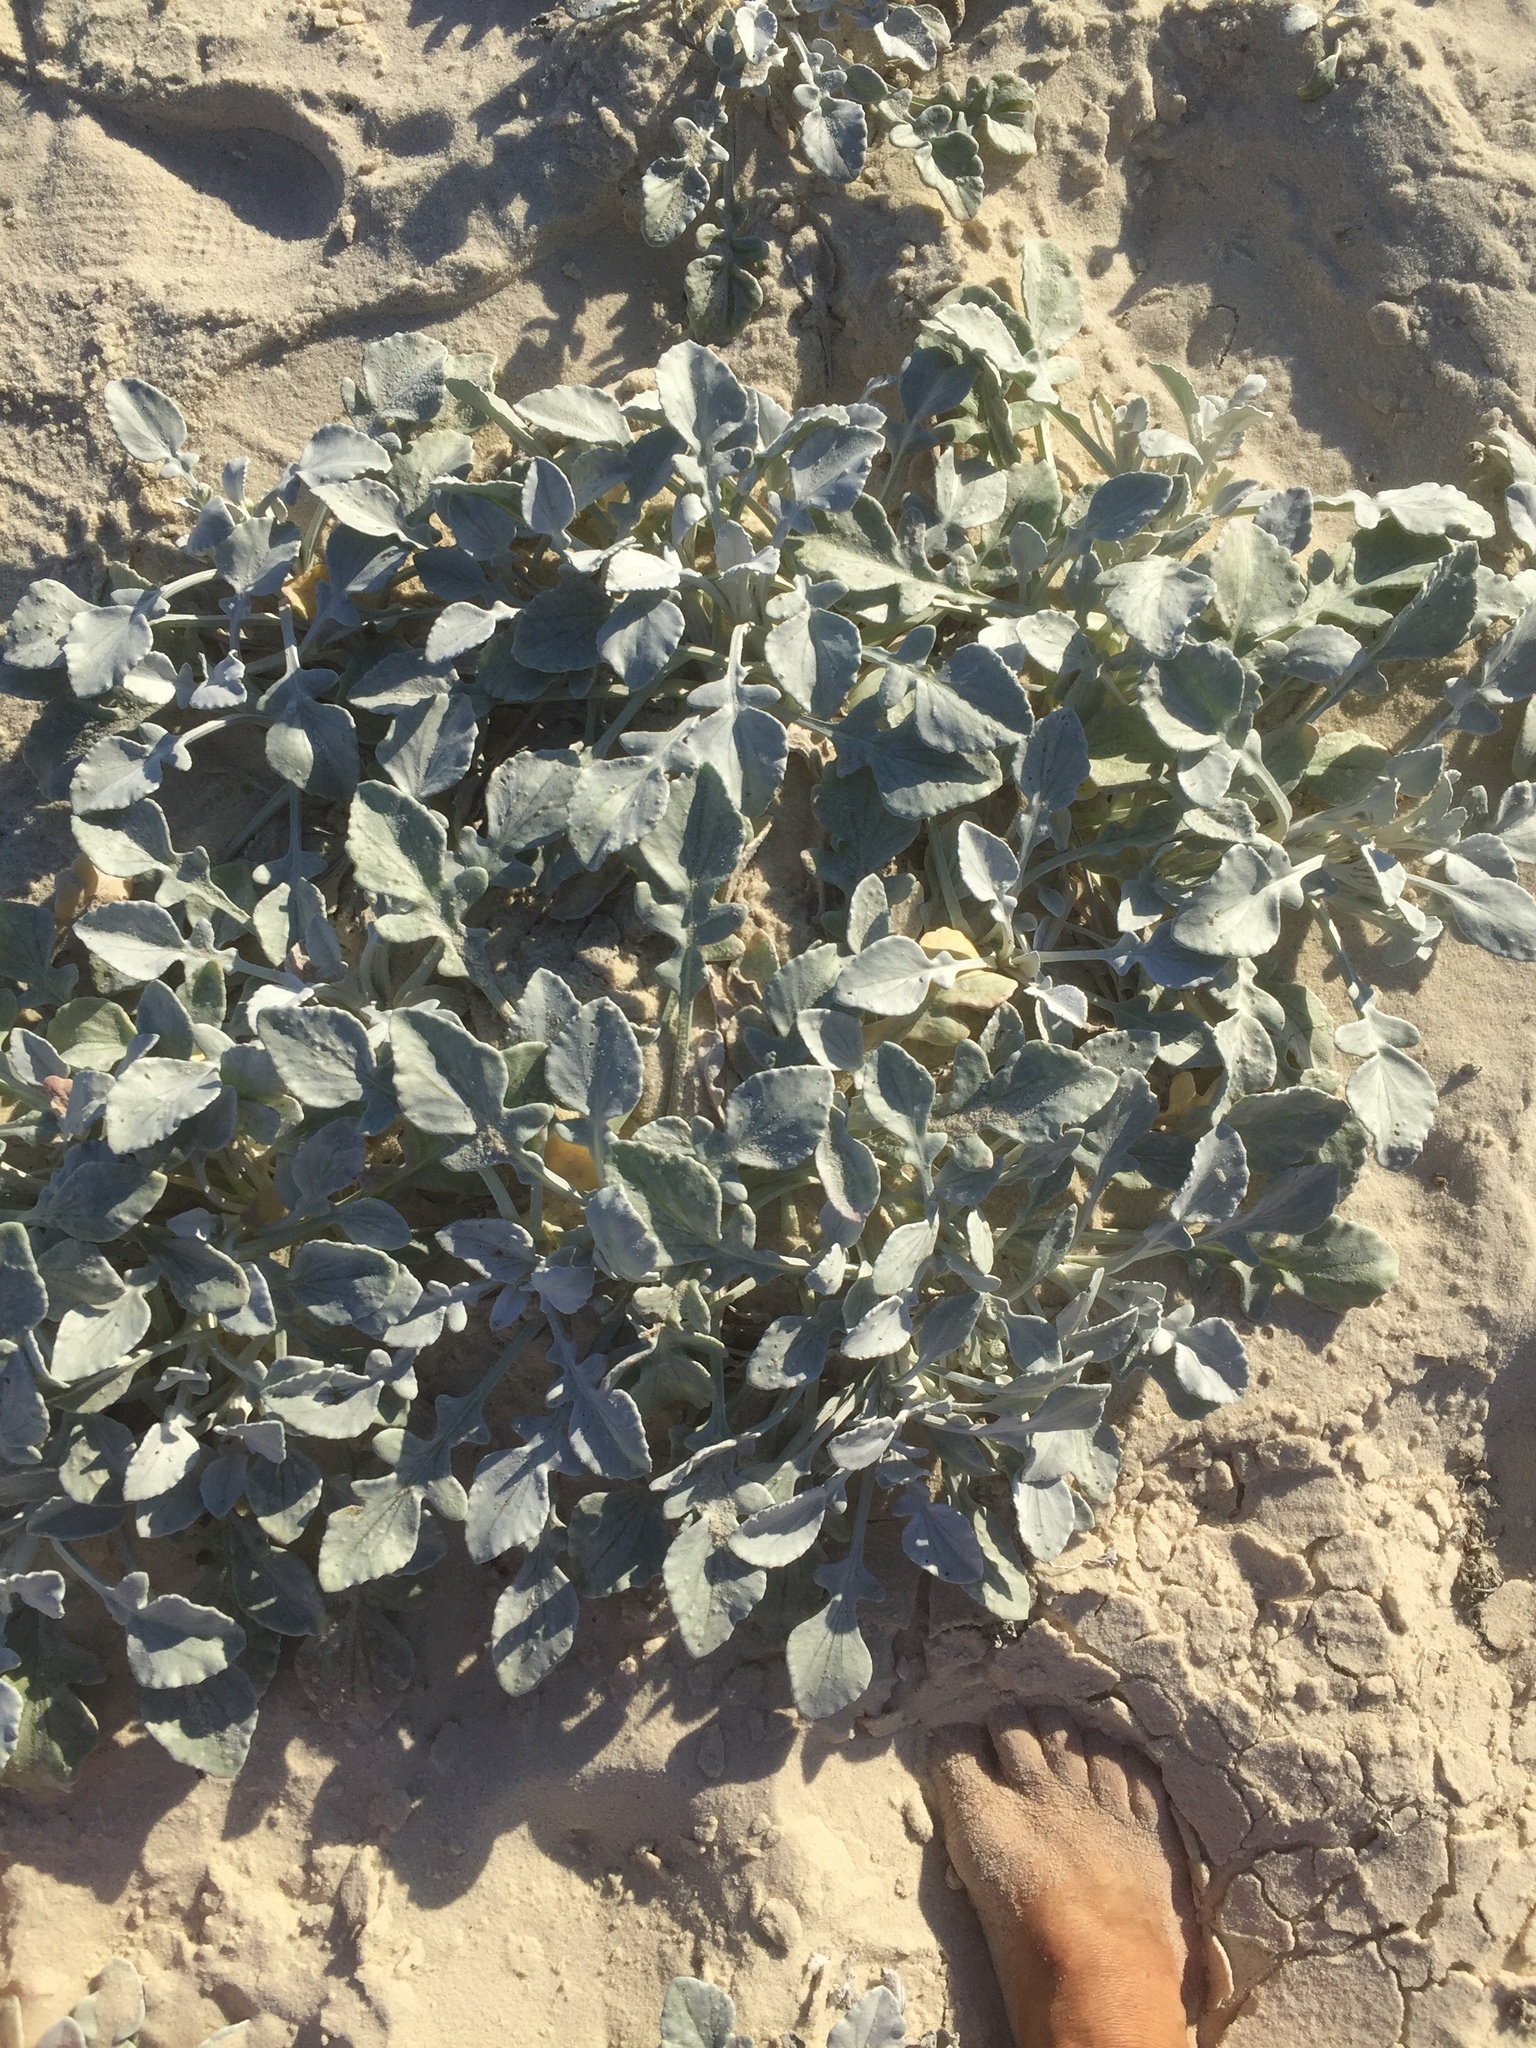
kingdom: Plantae
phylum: Tracheophyta
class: Magnoliopsida
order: Asterales
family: Asteraceae
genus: Arctotheca
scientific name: Arctotheca populifolia
